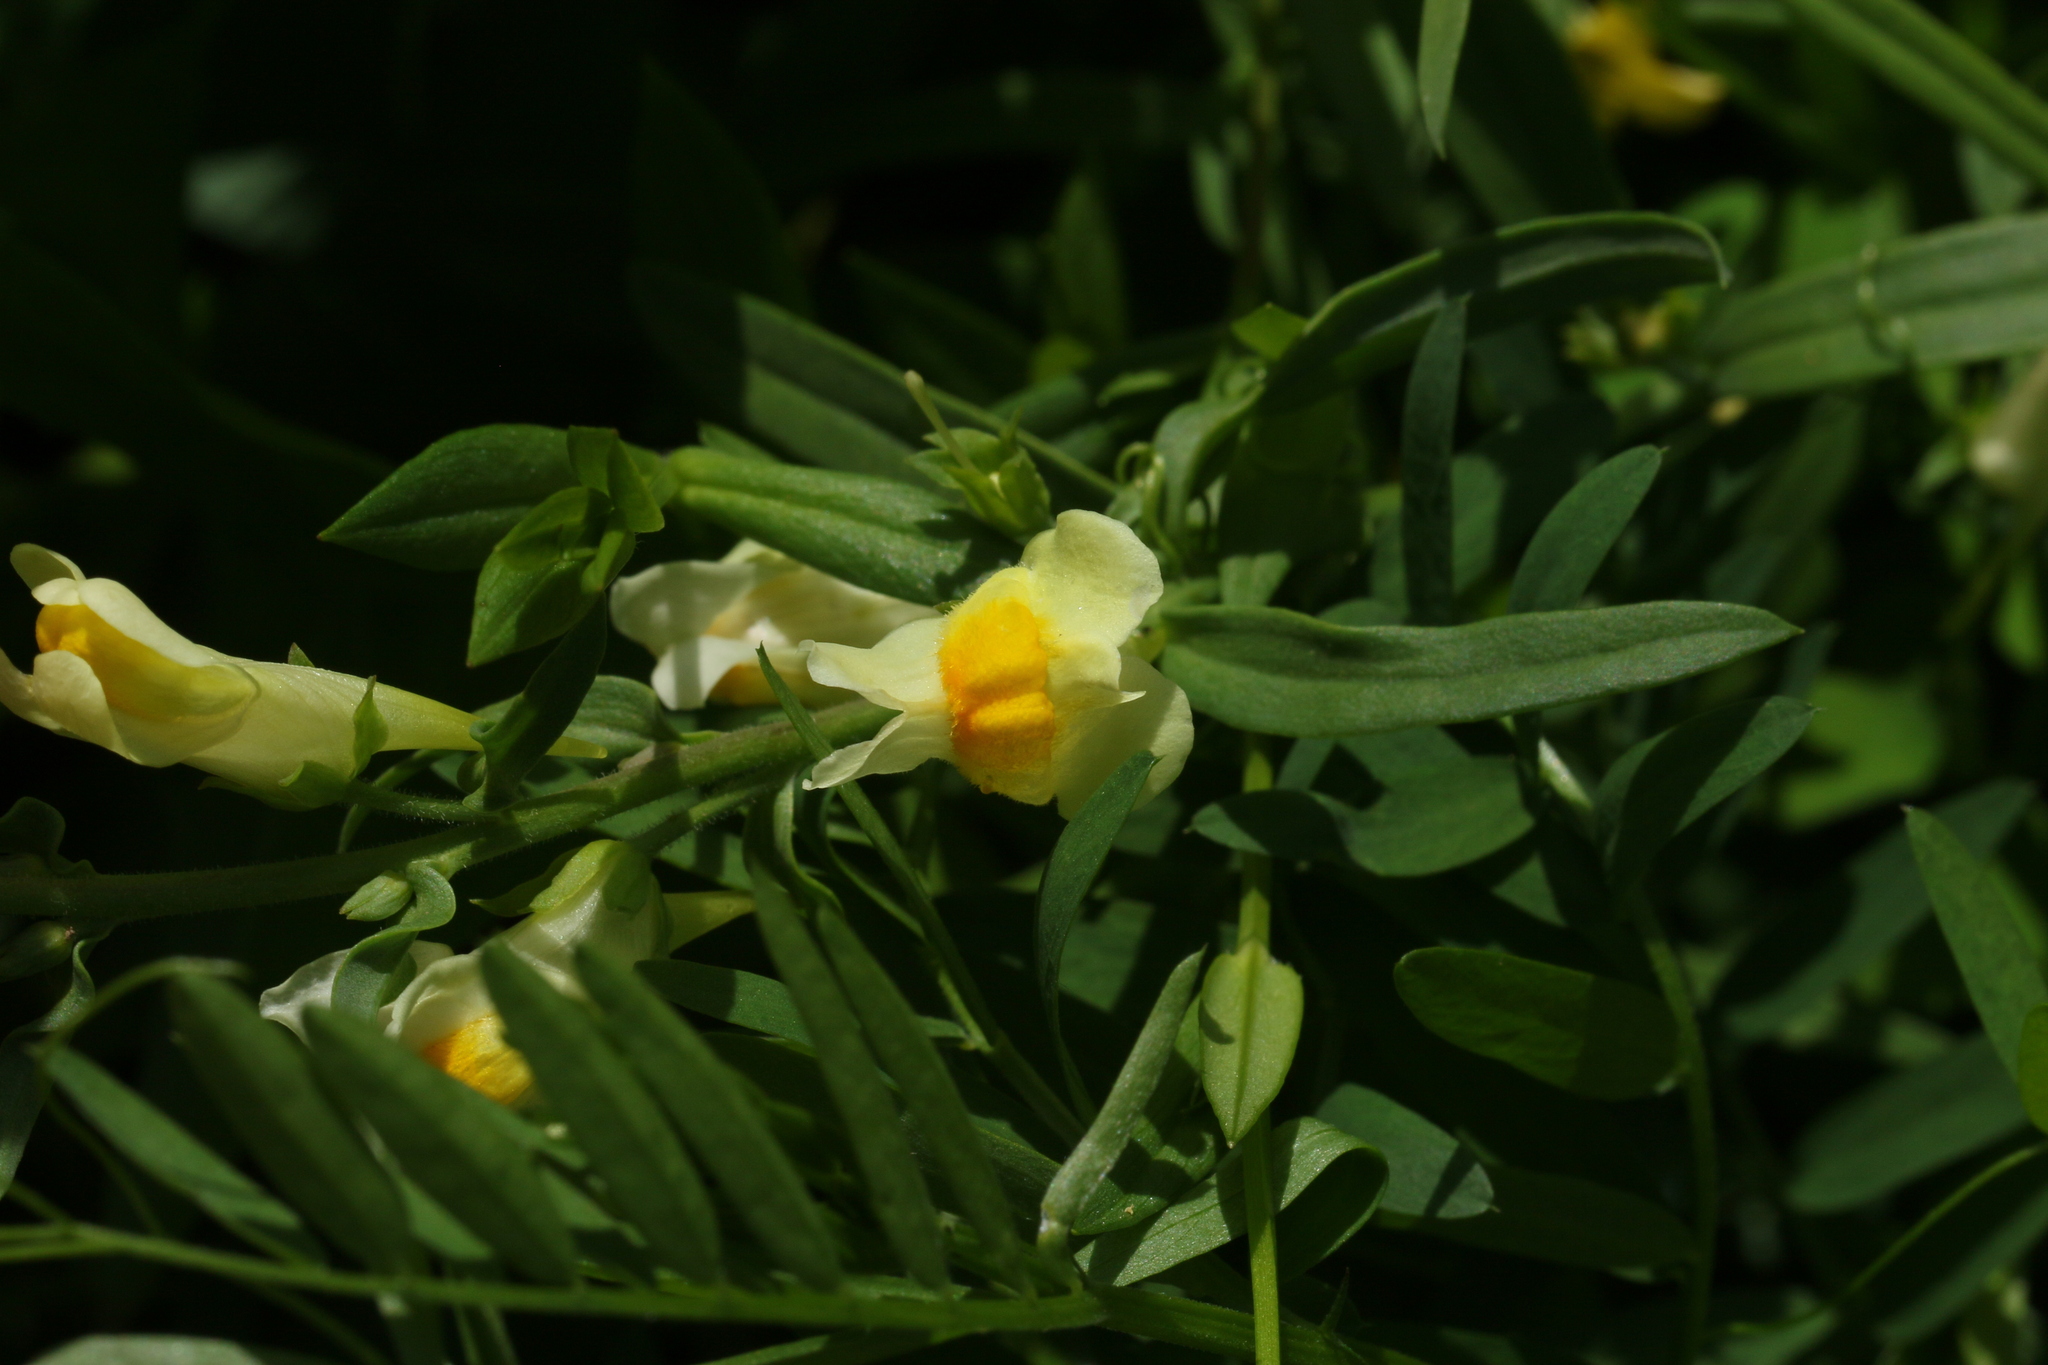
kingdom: Plantae
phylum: Tracheophyta
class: Magnoliopsida
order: Lamiales
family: Plantaginaceae
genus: Linaria
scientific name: Linaria vulgaris
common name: Butter and eggs
